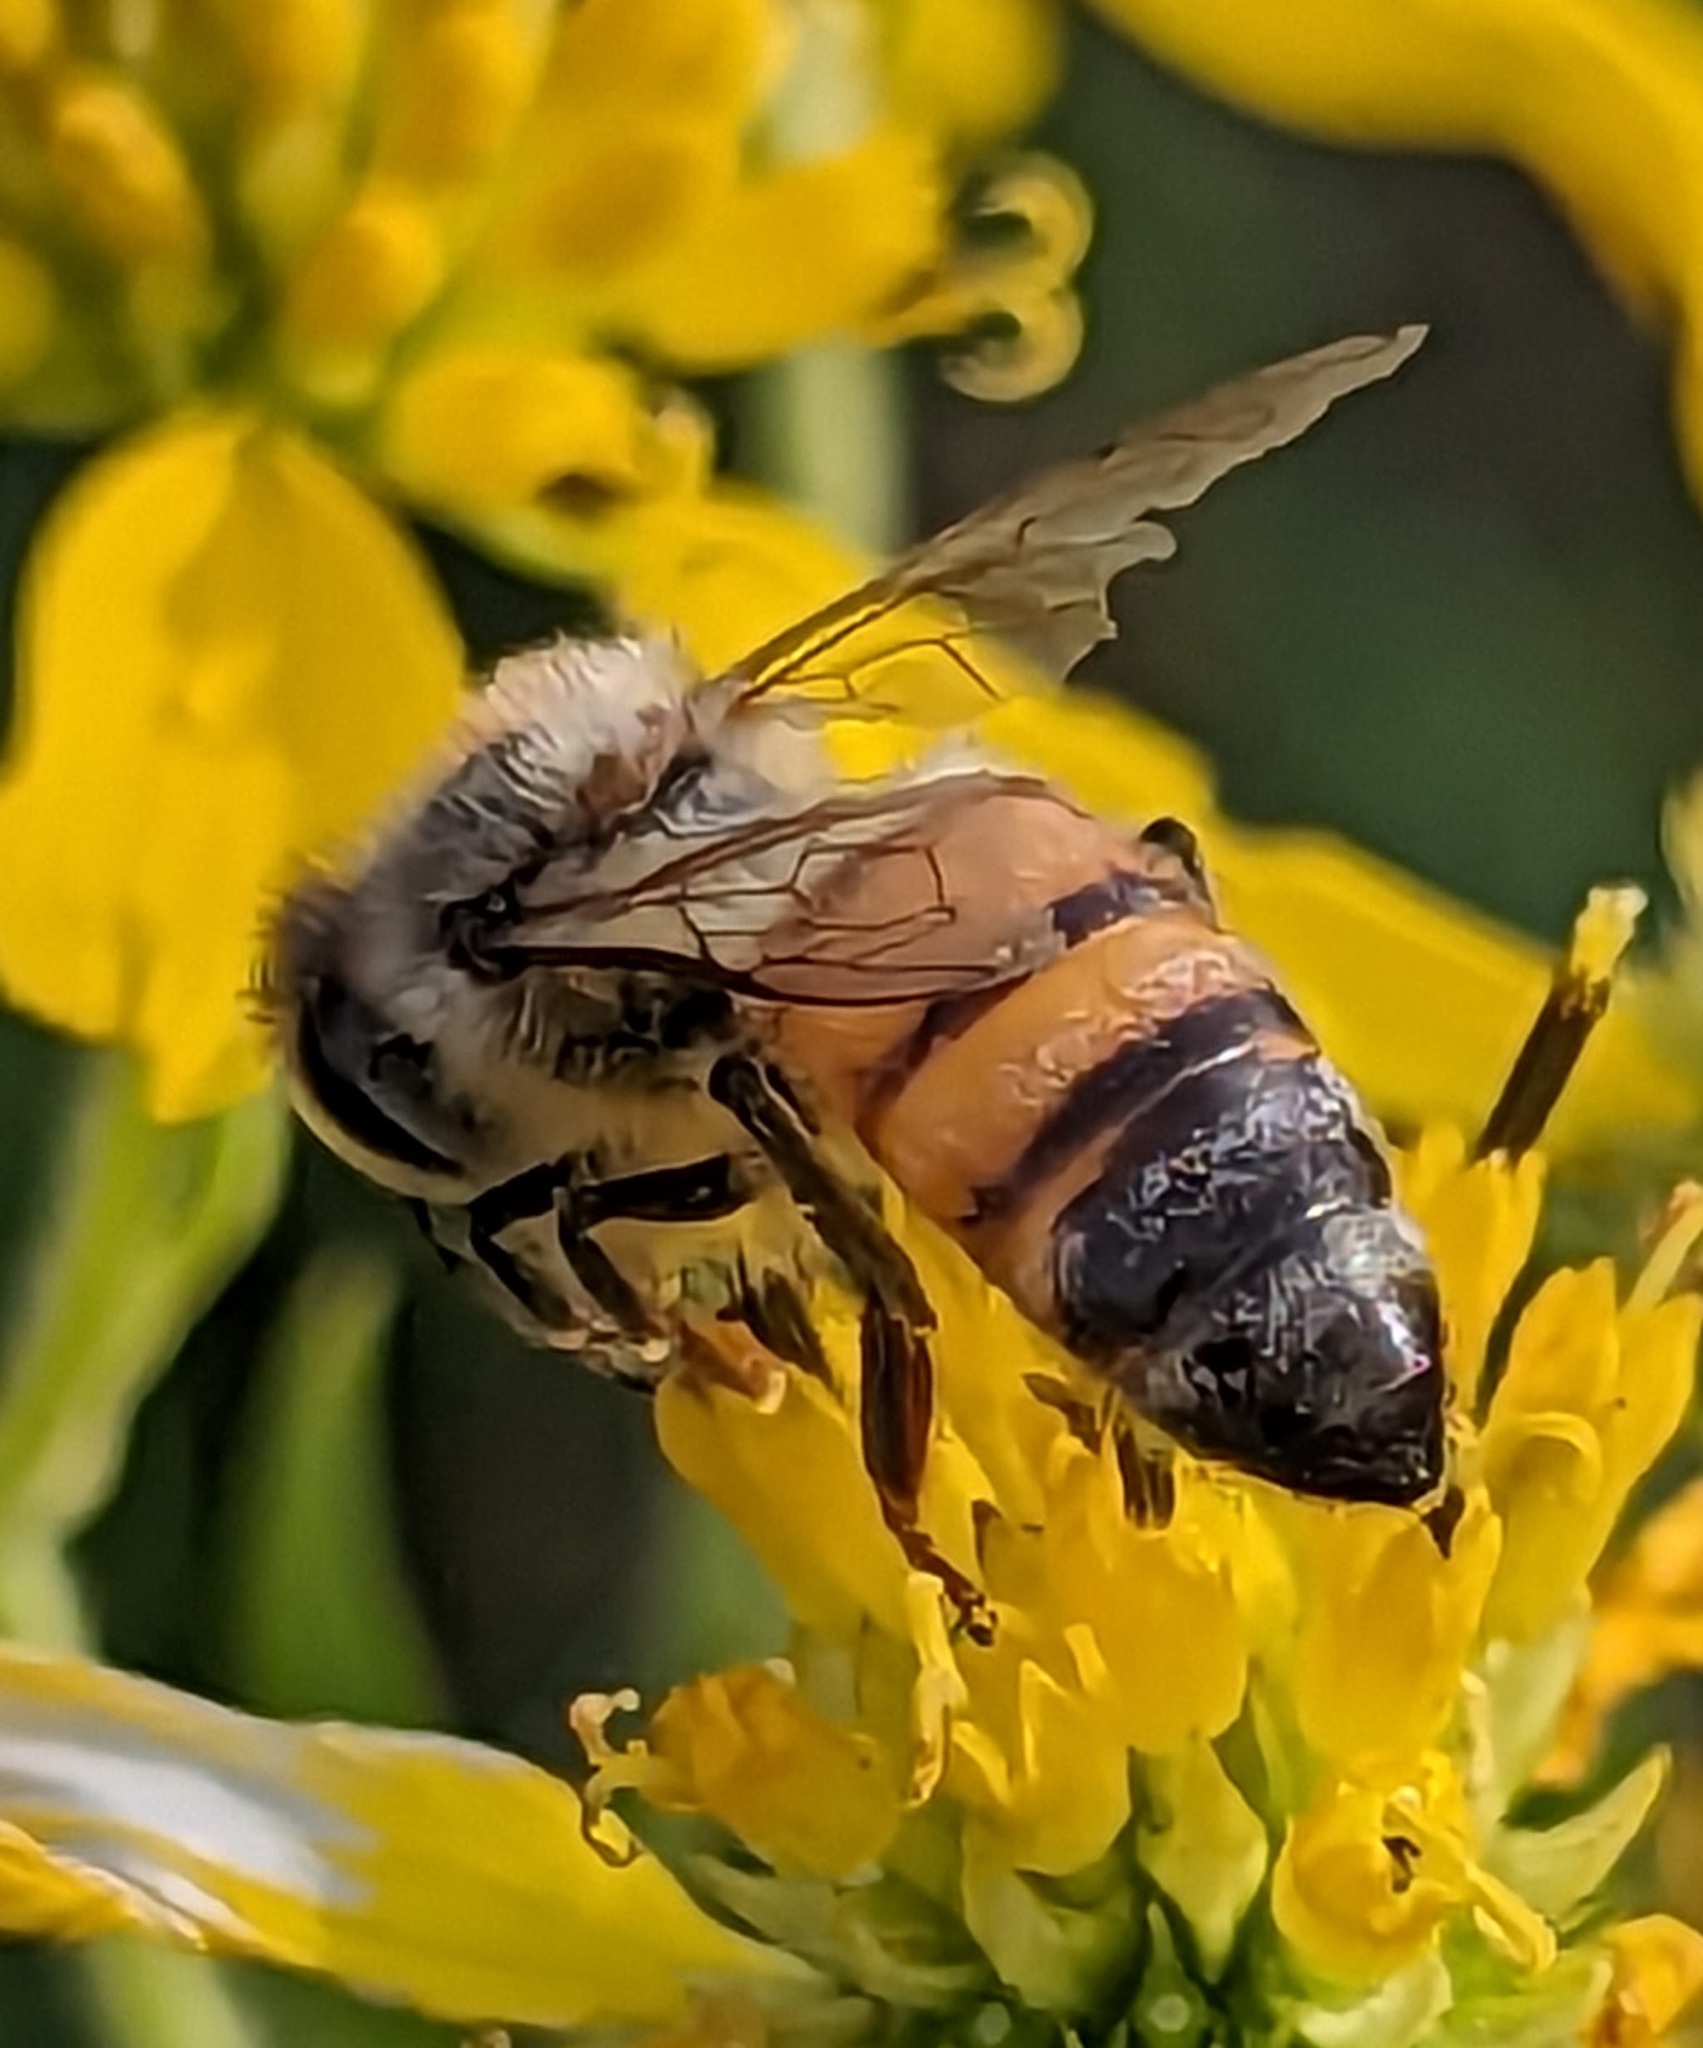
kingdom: Animalia
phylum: Arthropoda
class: Insecta
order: Hymenoptera
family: Apidae
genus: Apis
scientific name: Apis mellifera
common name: Honey bee
